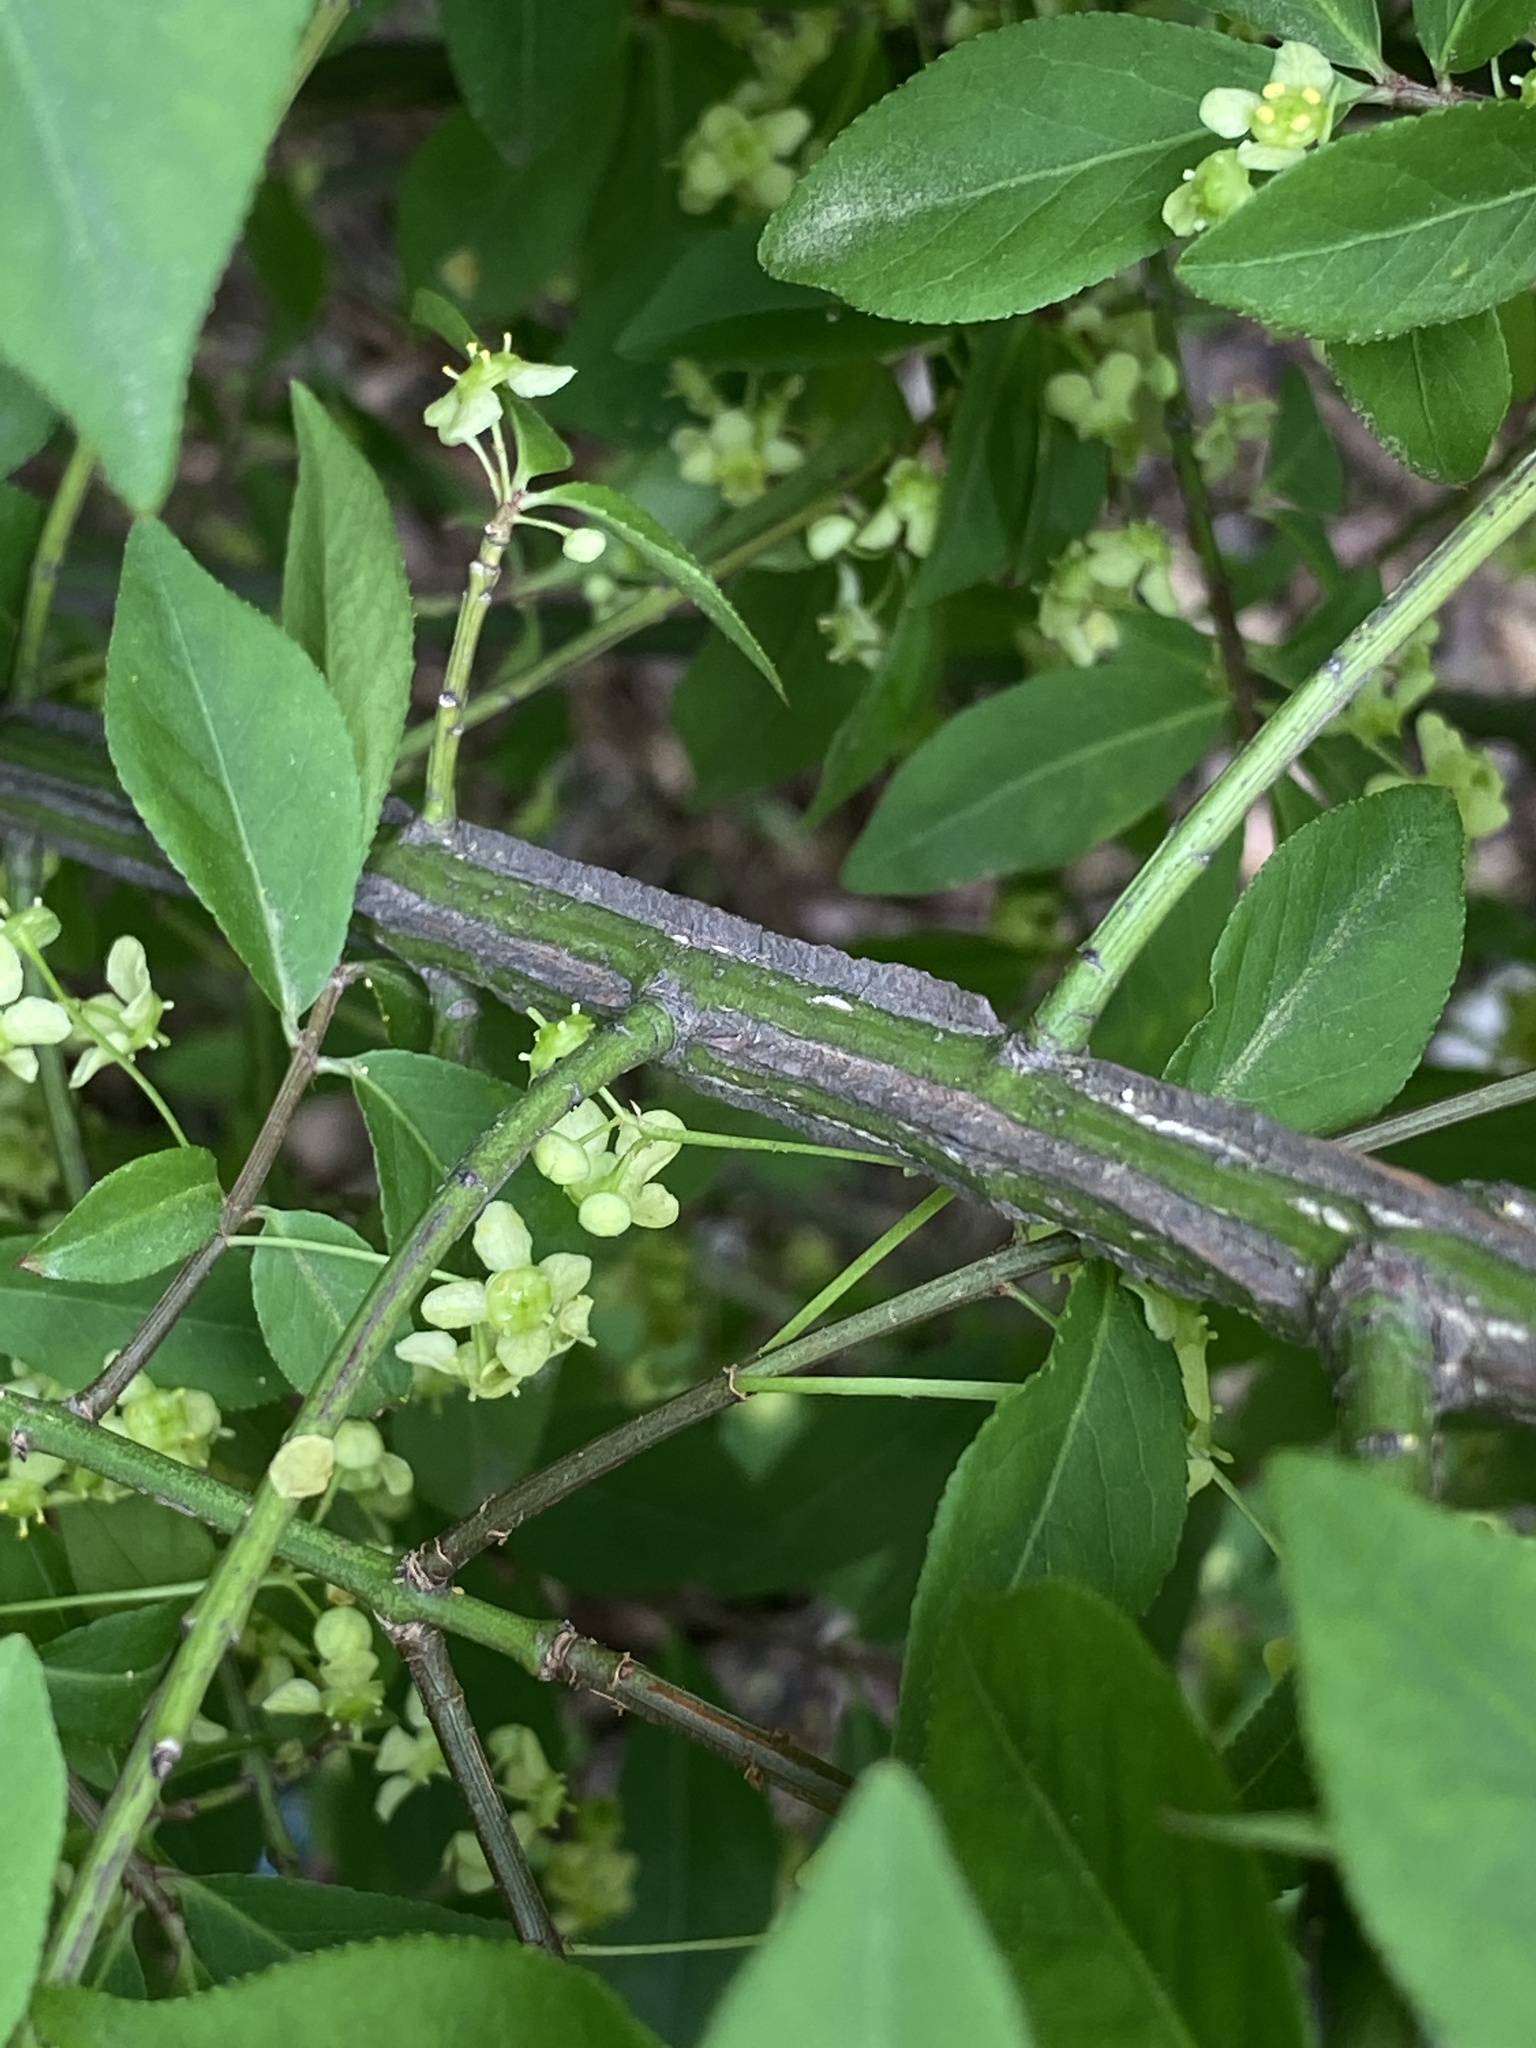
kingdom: Plantae
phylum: Tracheophyta
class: Magnoliopsida
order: Celastrales
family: Celastraceae
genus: Euonymus
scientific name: Euonymus alatus
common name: Winged euonymus
